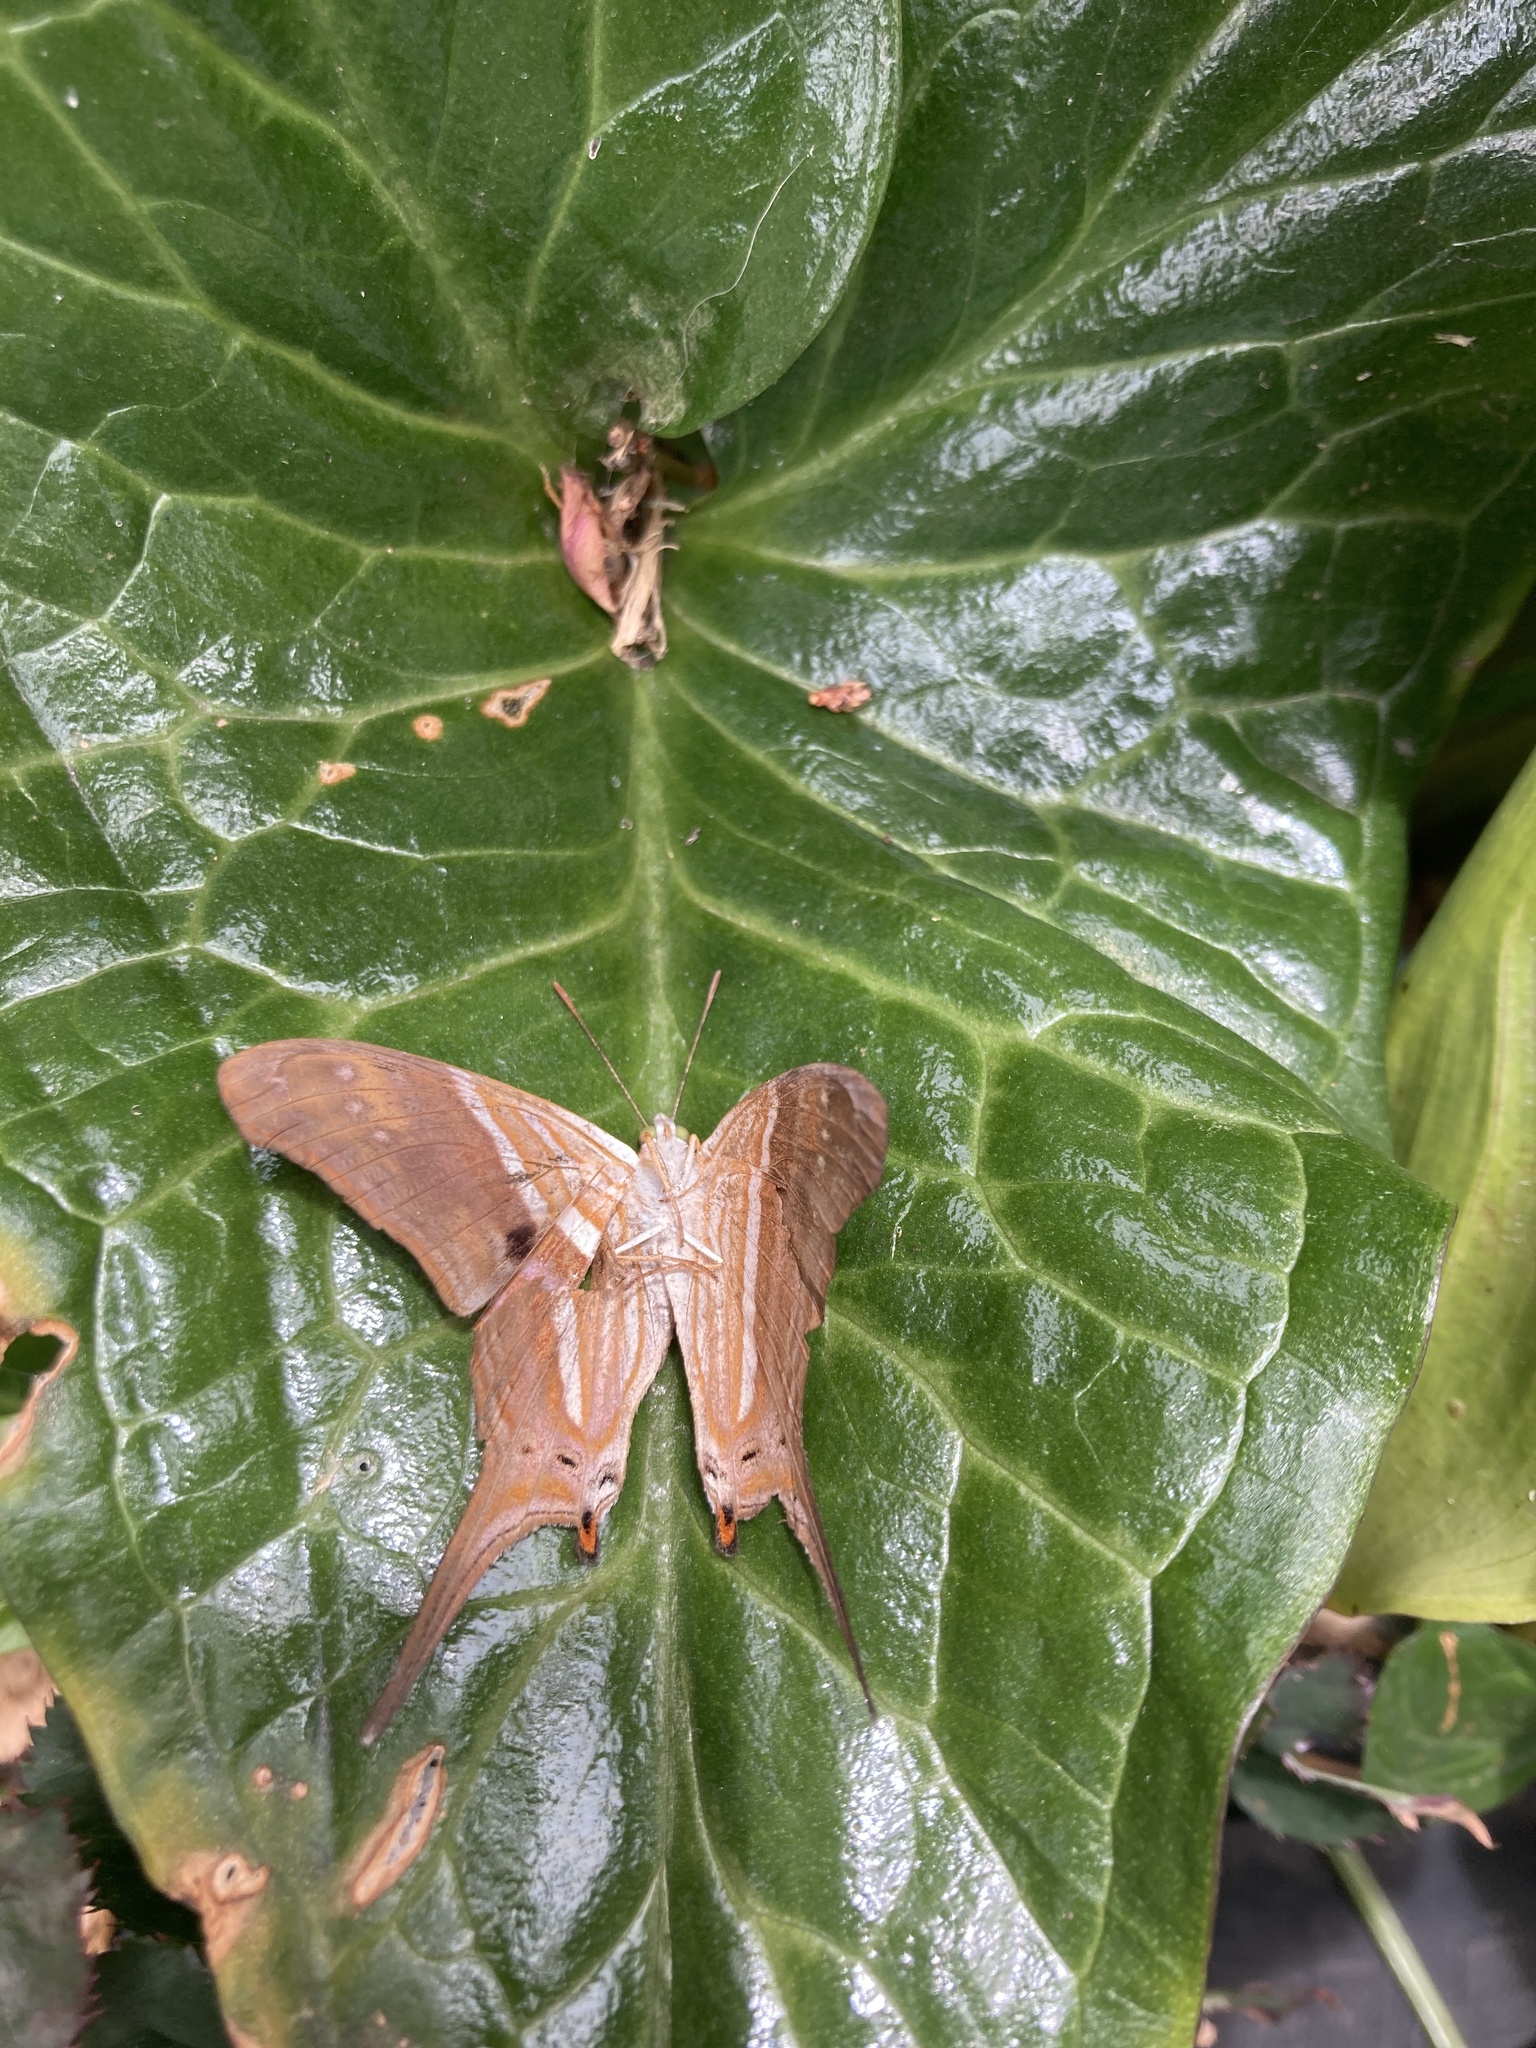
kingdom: Animalia
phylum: Arthropoda
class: Insecta
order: Lepidoptera
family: Nymphalidae
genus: Marpesia
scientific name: Marpesia chiron
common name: Many-banded daggerwing
